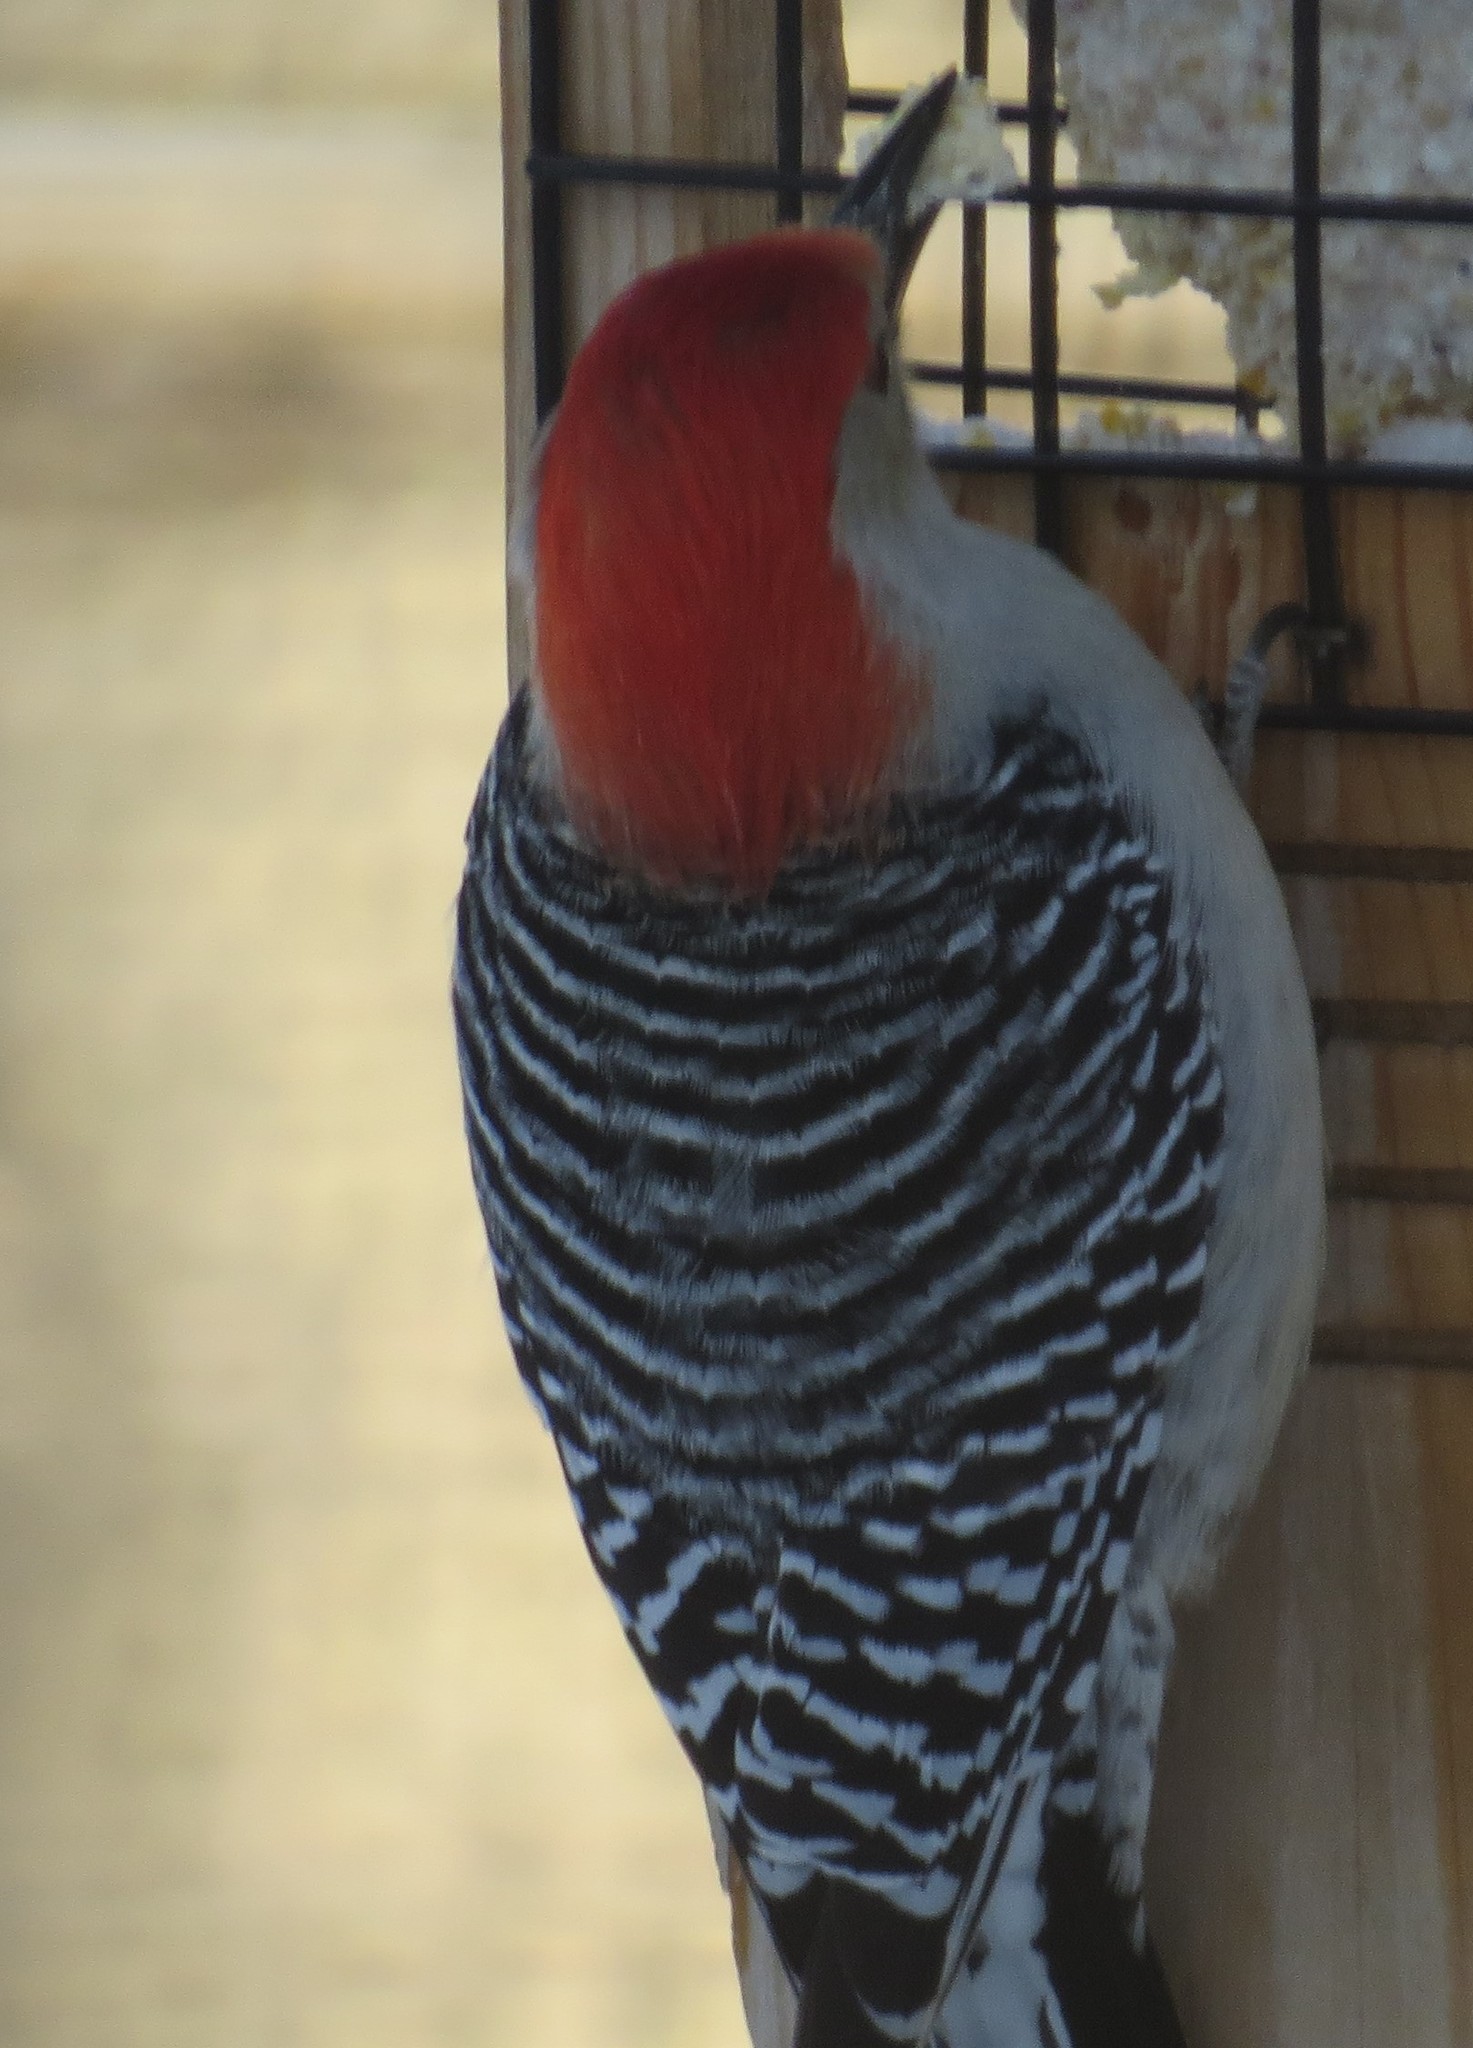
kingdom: Animalia
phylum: Chordata
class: Aves
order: Piciformes
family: Picidae
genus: Melanerpes
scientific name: Melanerpes carolinus
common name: Red-bellied woodpecker
